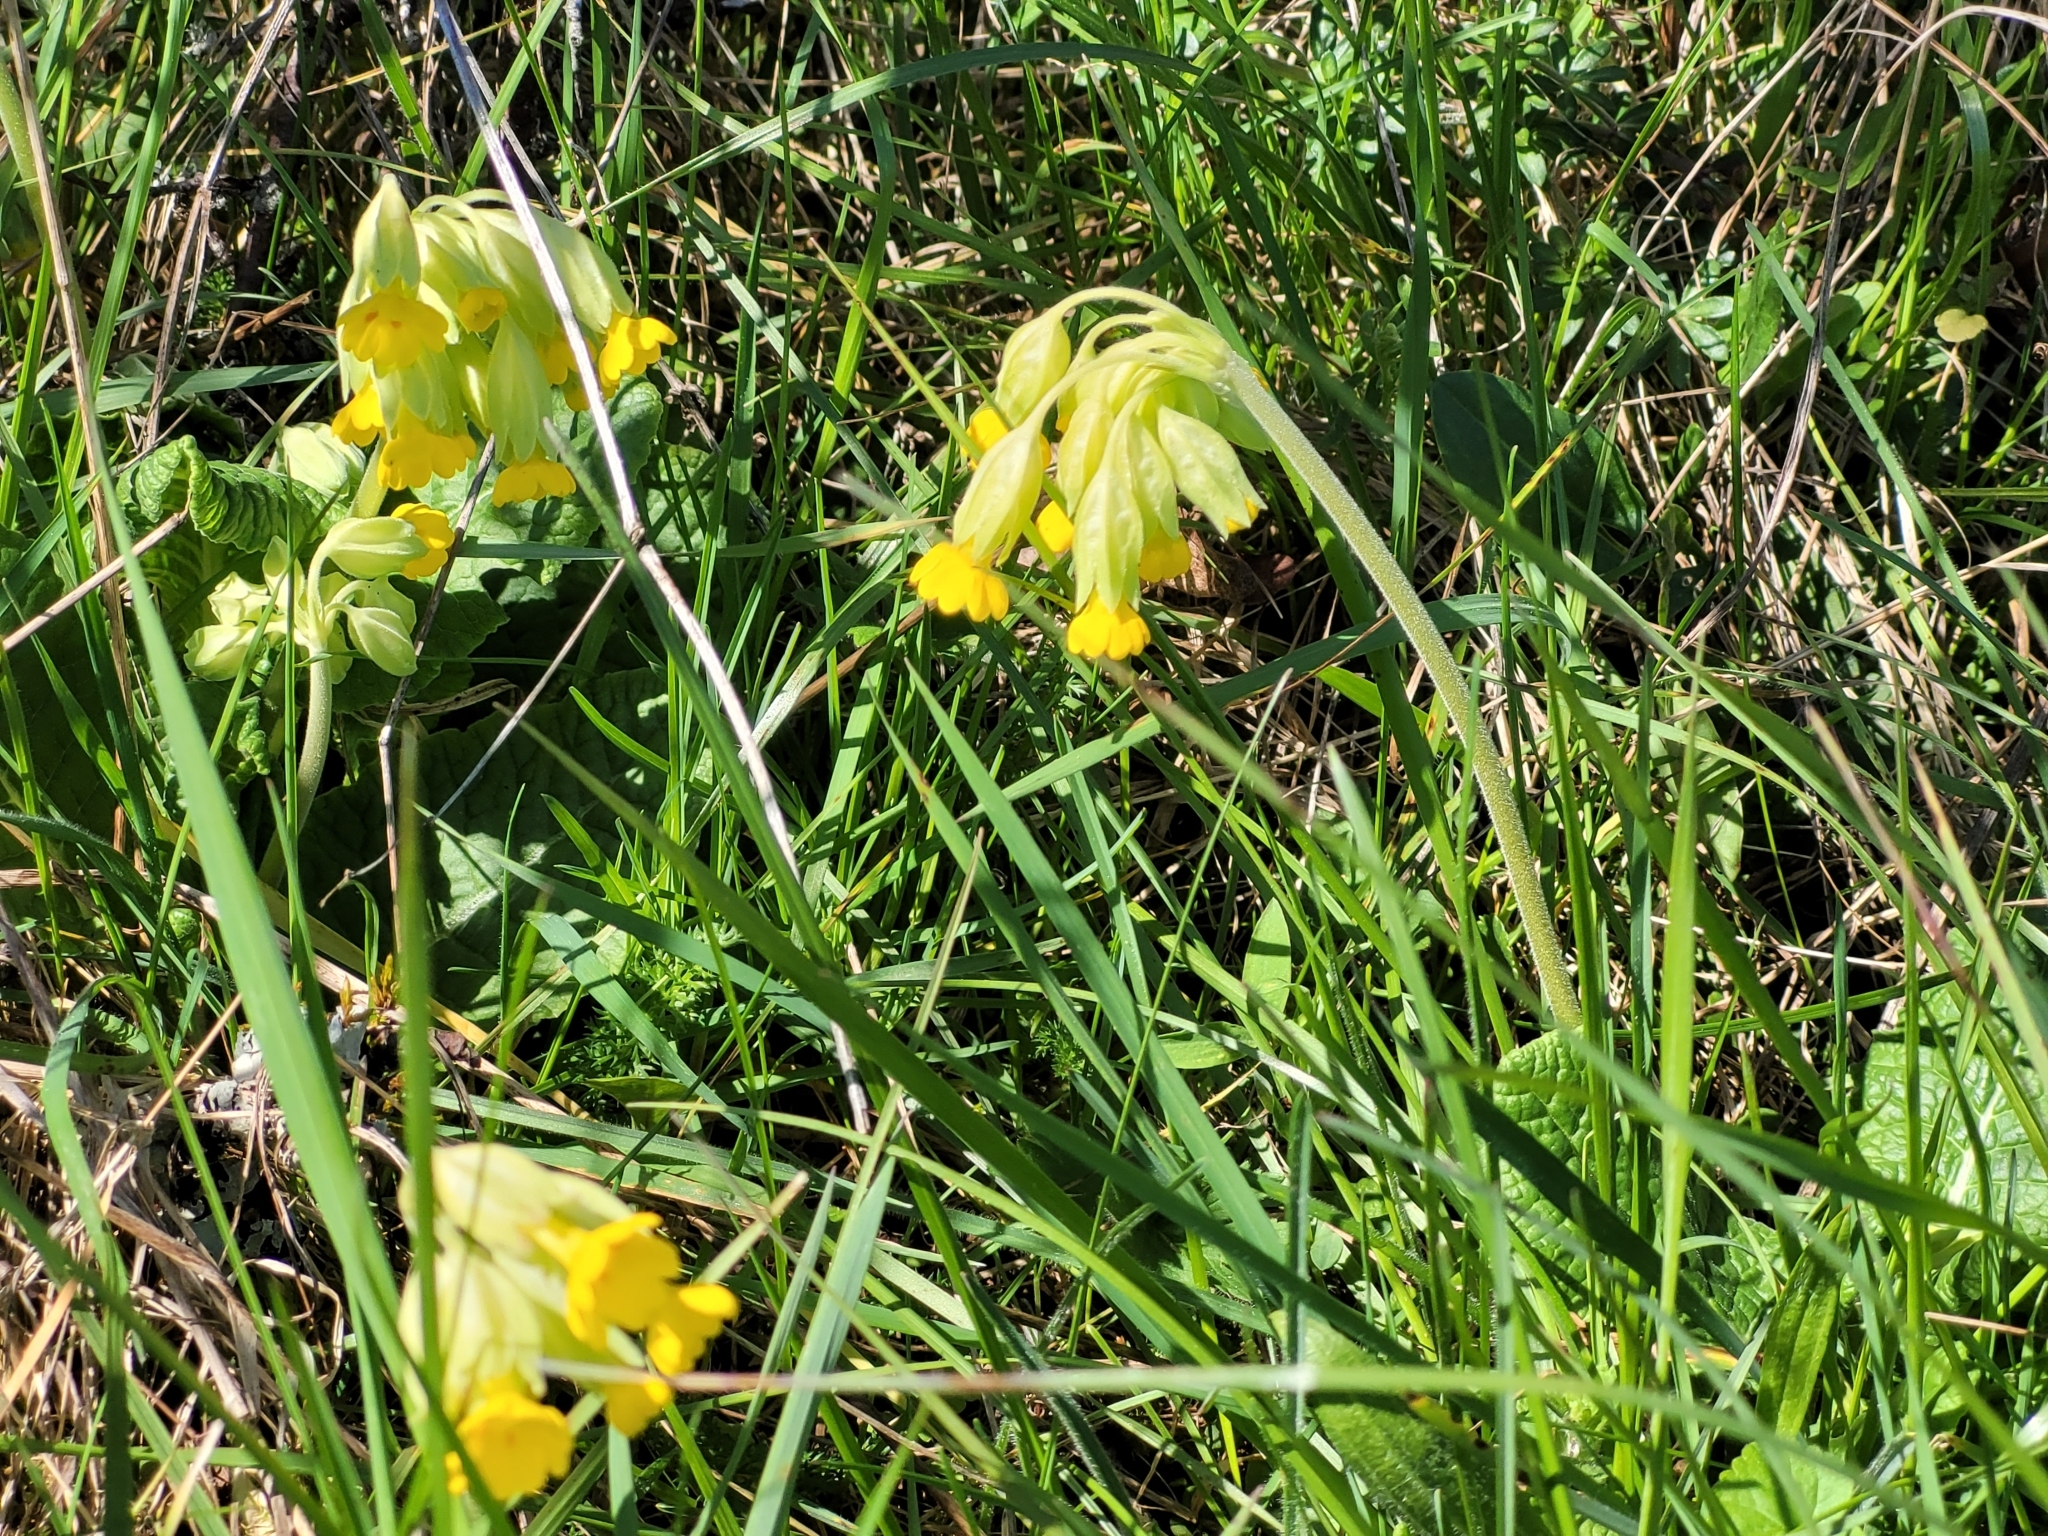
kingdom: Plantae
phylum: Tracheophyta
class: Magnoliopsida
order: Ericales
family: Primulaceae
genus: Primula
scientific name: Primula veris
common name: Cowslip
